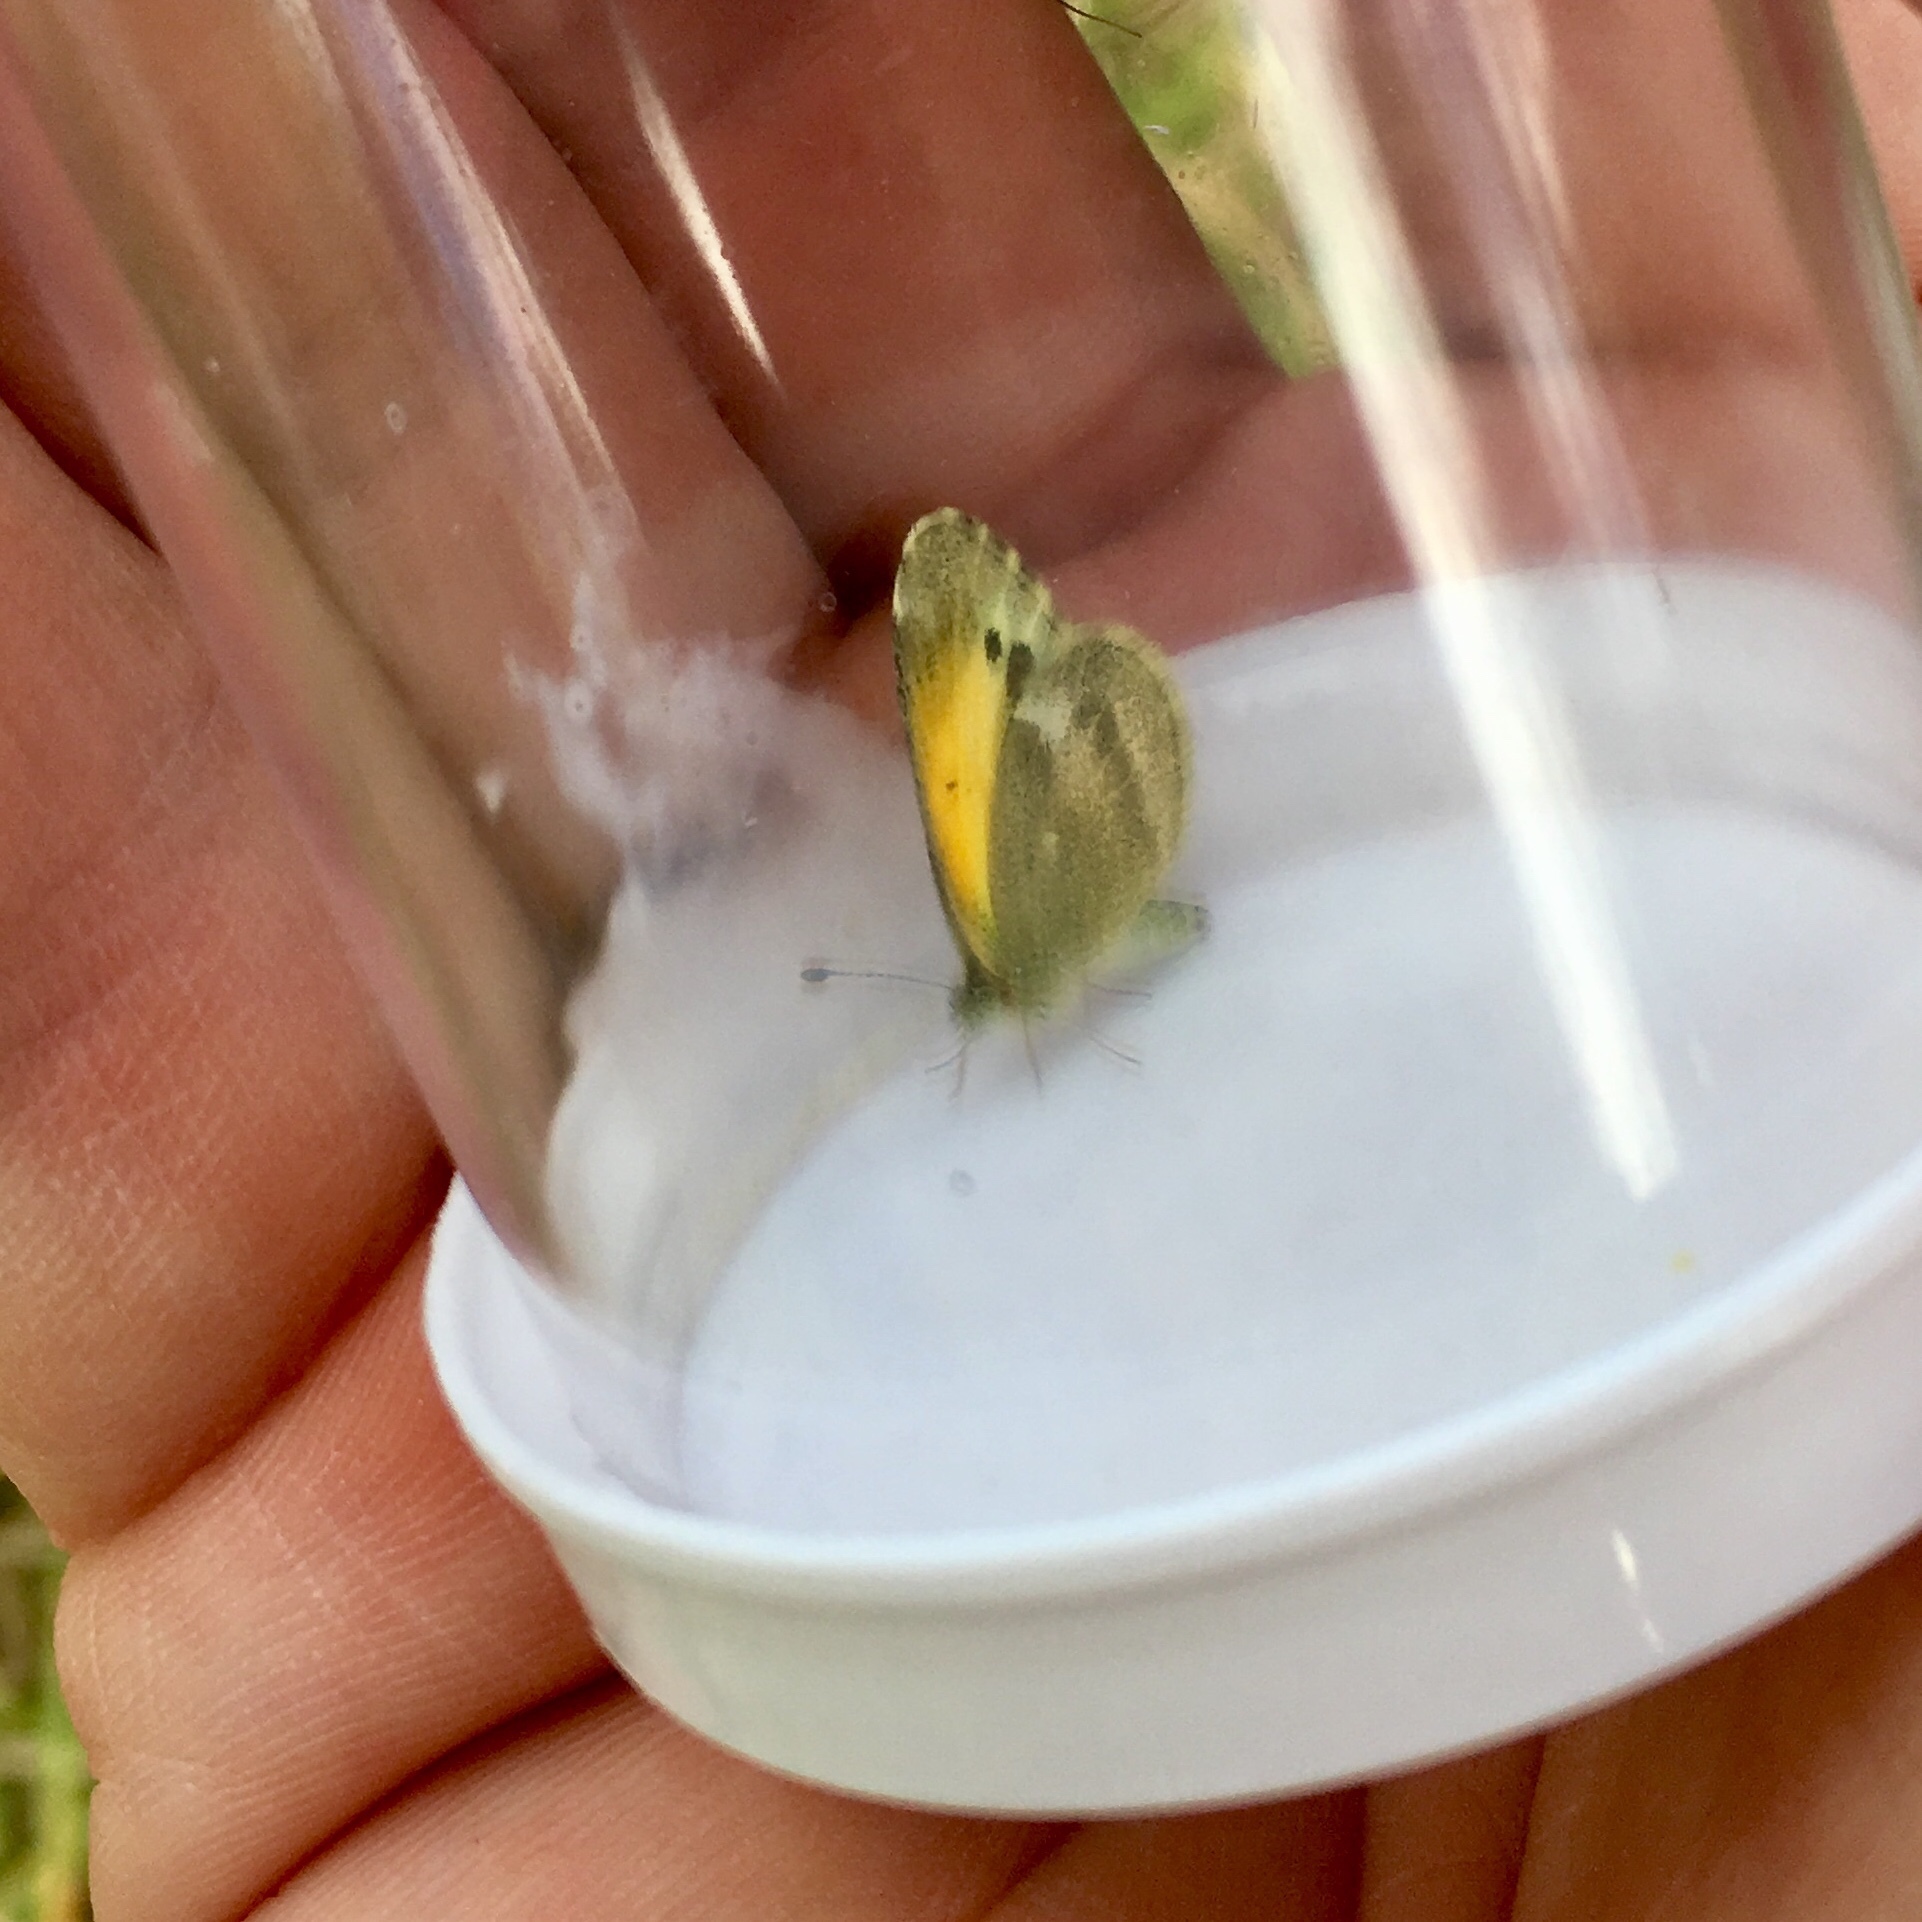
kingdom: Animalia
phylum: Arthropoda
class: Insecta
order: Lepidoptera
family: Pieridae
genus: Nathalis
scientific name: Nathalis iole
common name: Dainty sulphur
